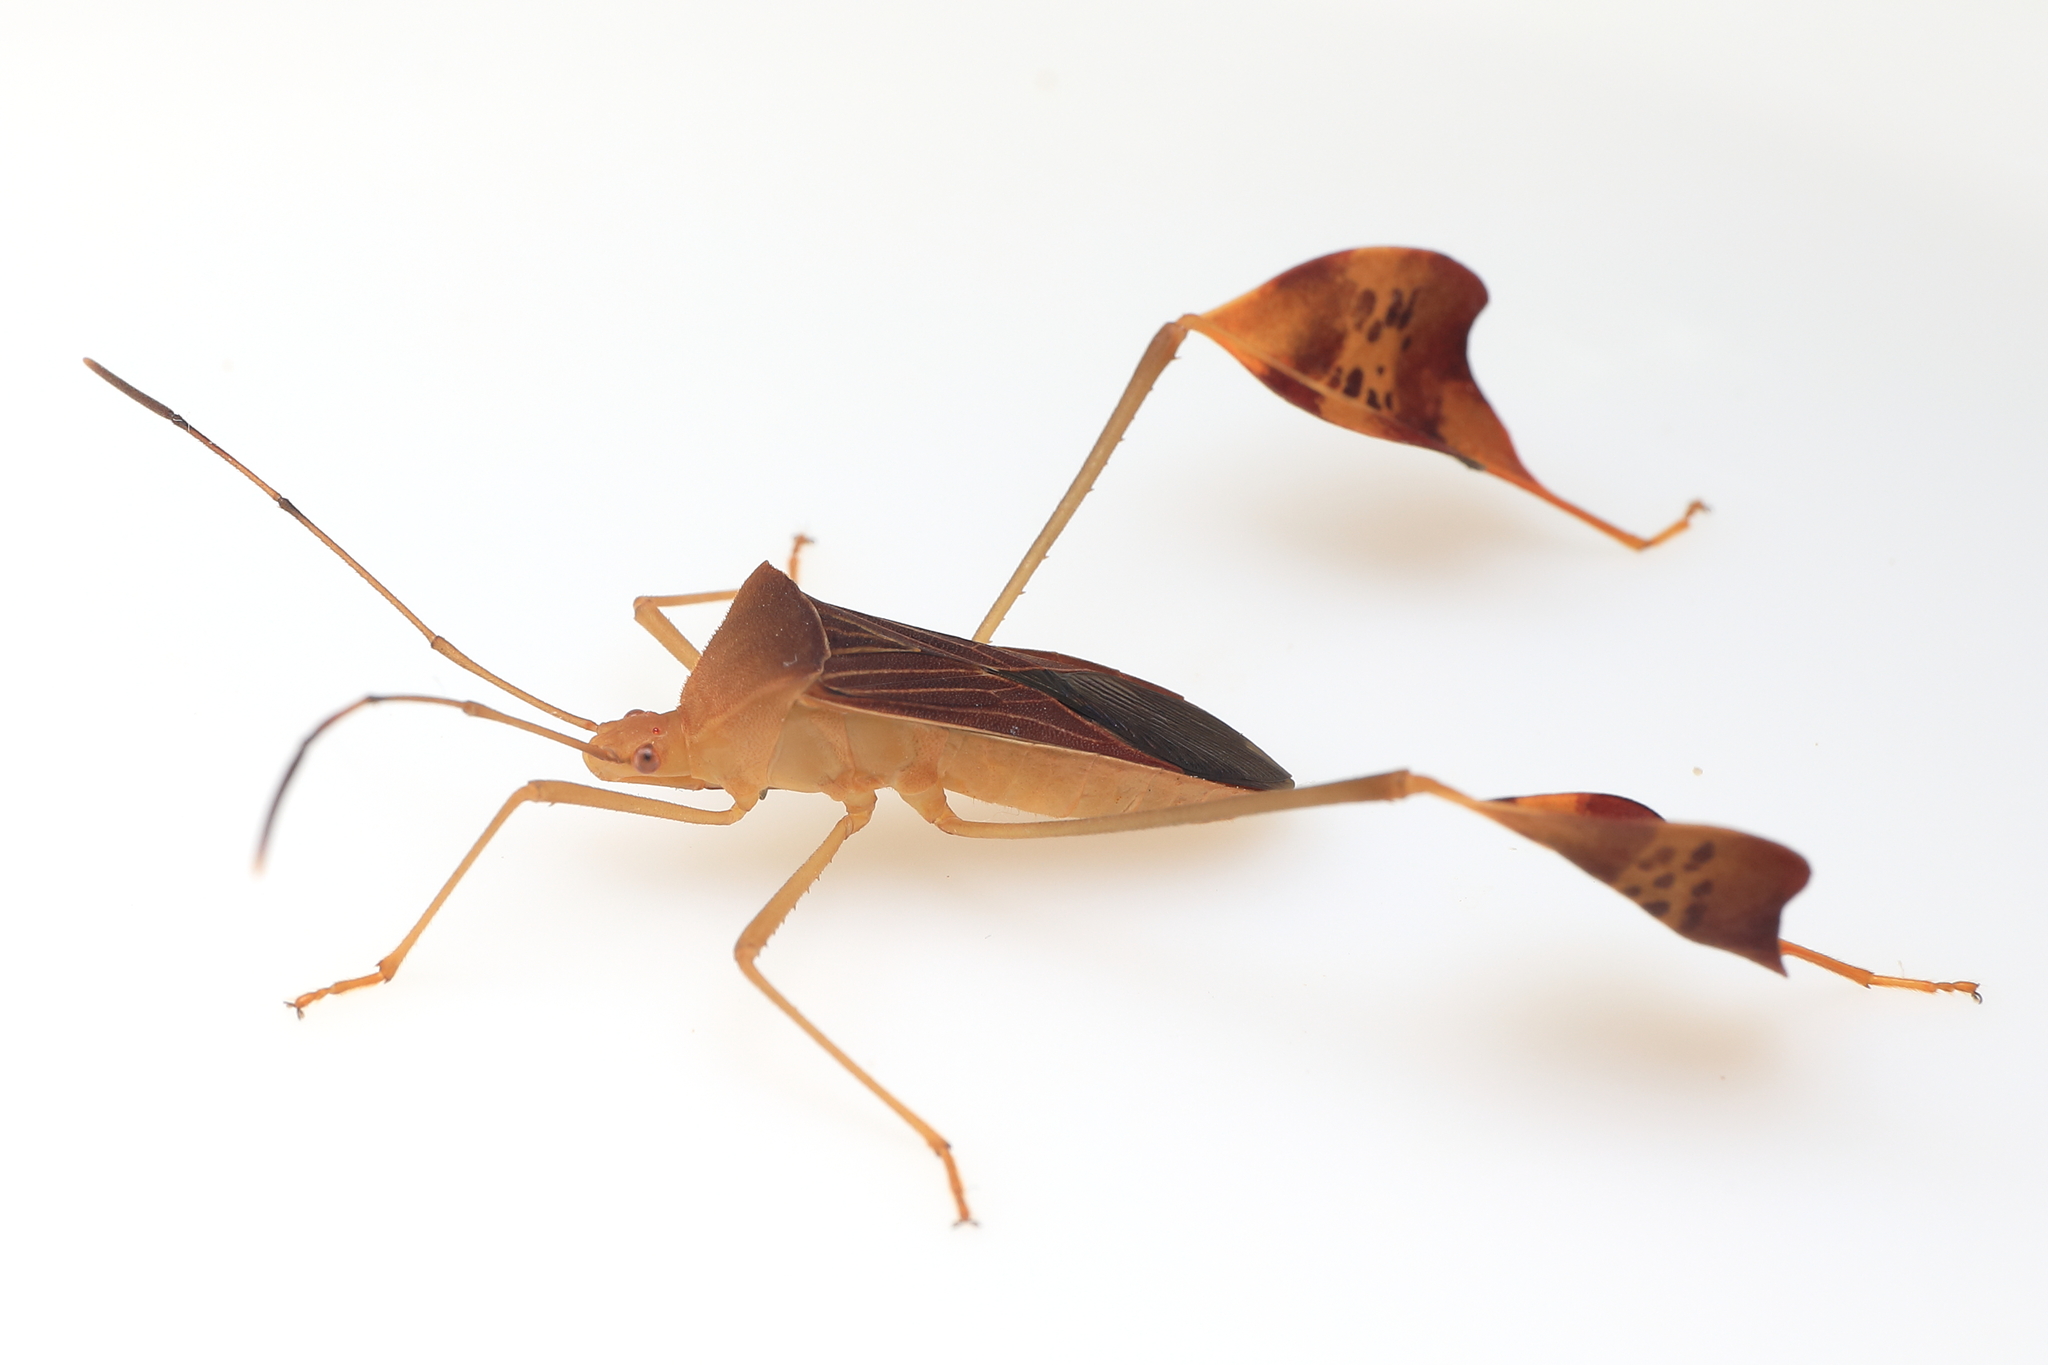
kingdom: Animalia
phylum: Arthropoda
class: Insecta
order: Hemiptera
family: Coreidae
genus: Bitta
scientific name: Bitta
